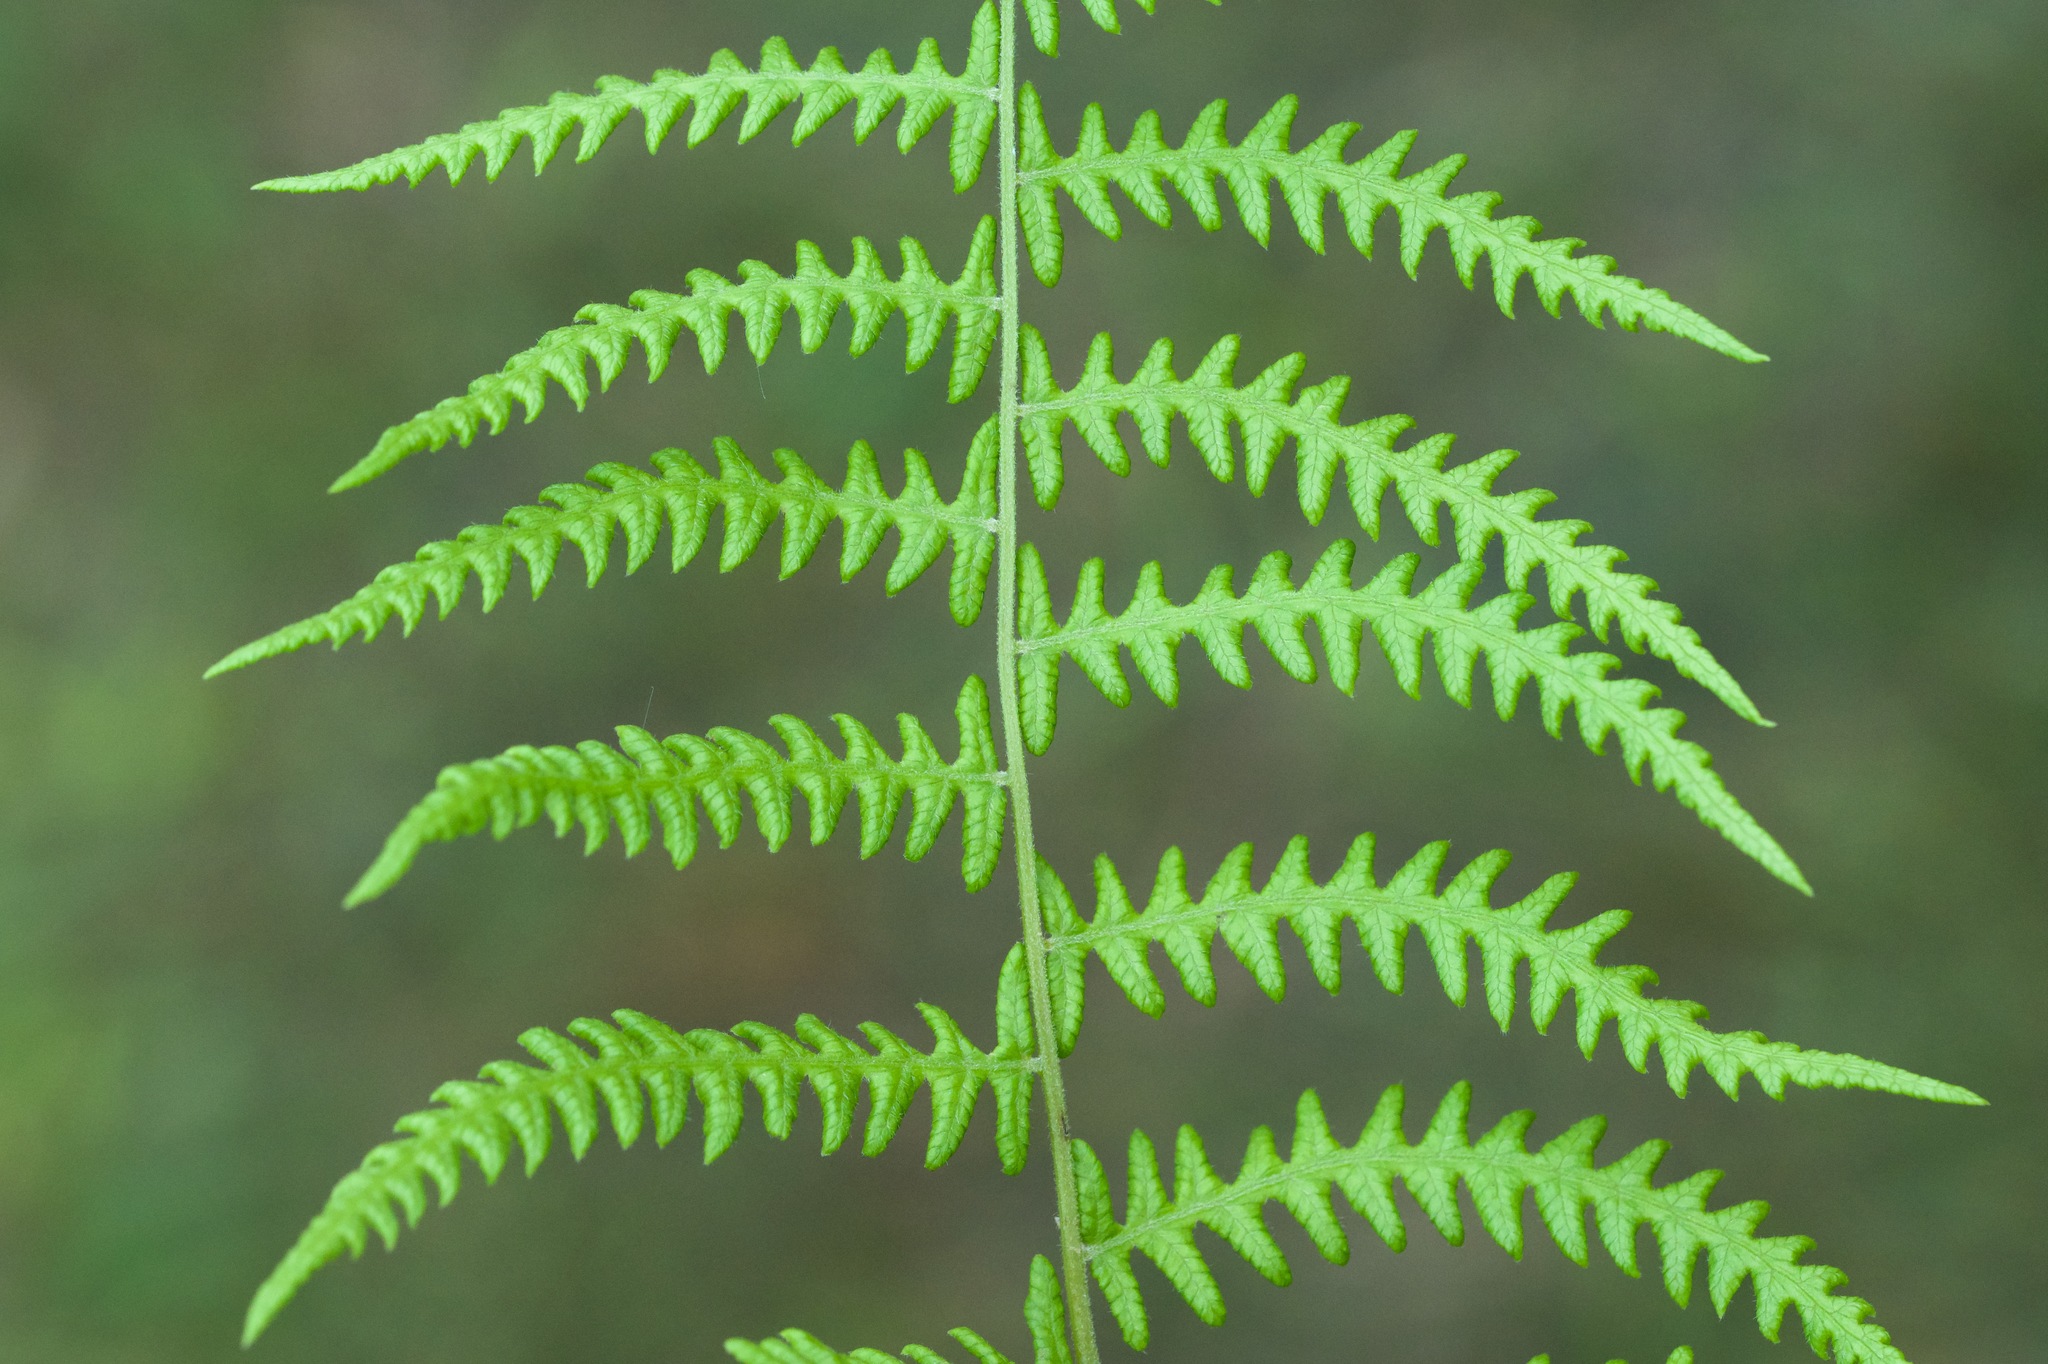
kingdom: Plantae
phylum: Tracheophyta
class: Polypodiopsida
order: Polypodiales
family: Thelypteridaceae
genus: Thelypteris
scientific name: Thelypteris palustris
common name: Marsh fern
